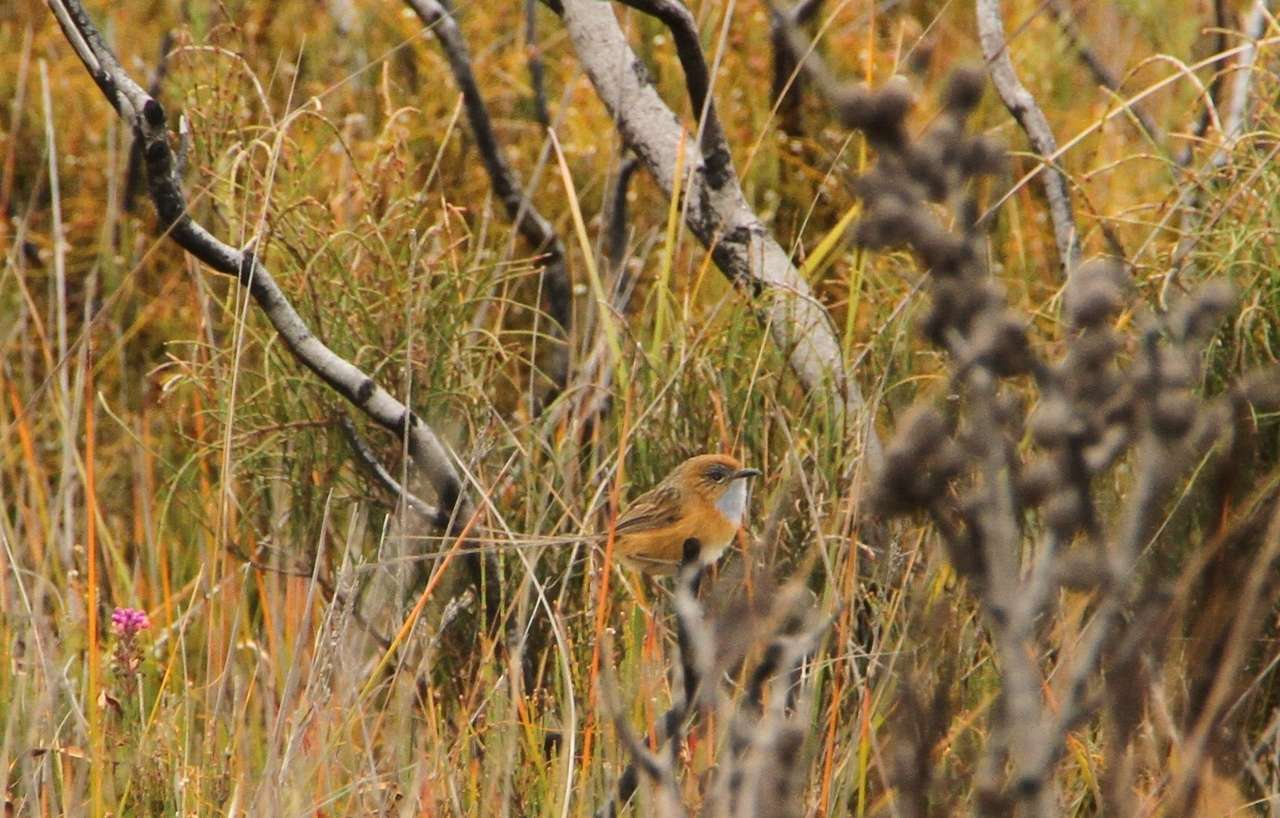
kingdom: Animalia
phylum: Chordata
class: Aves
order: Passeriformes
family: Maluridae
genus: Stipiturus
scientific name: Stipiturus malachurus
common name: Southern emu-wren
